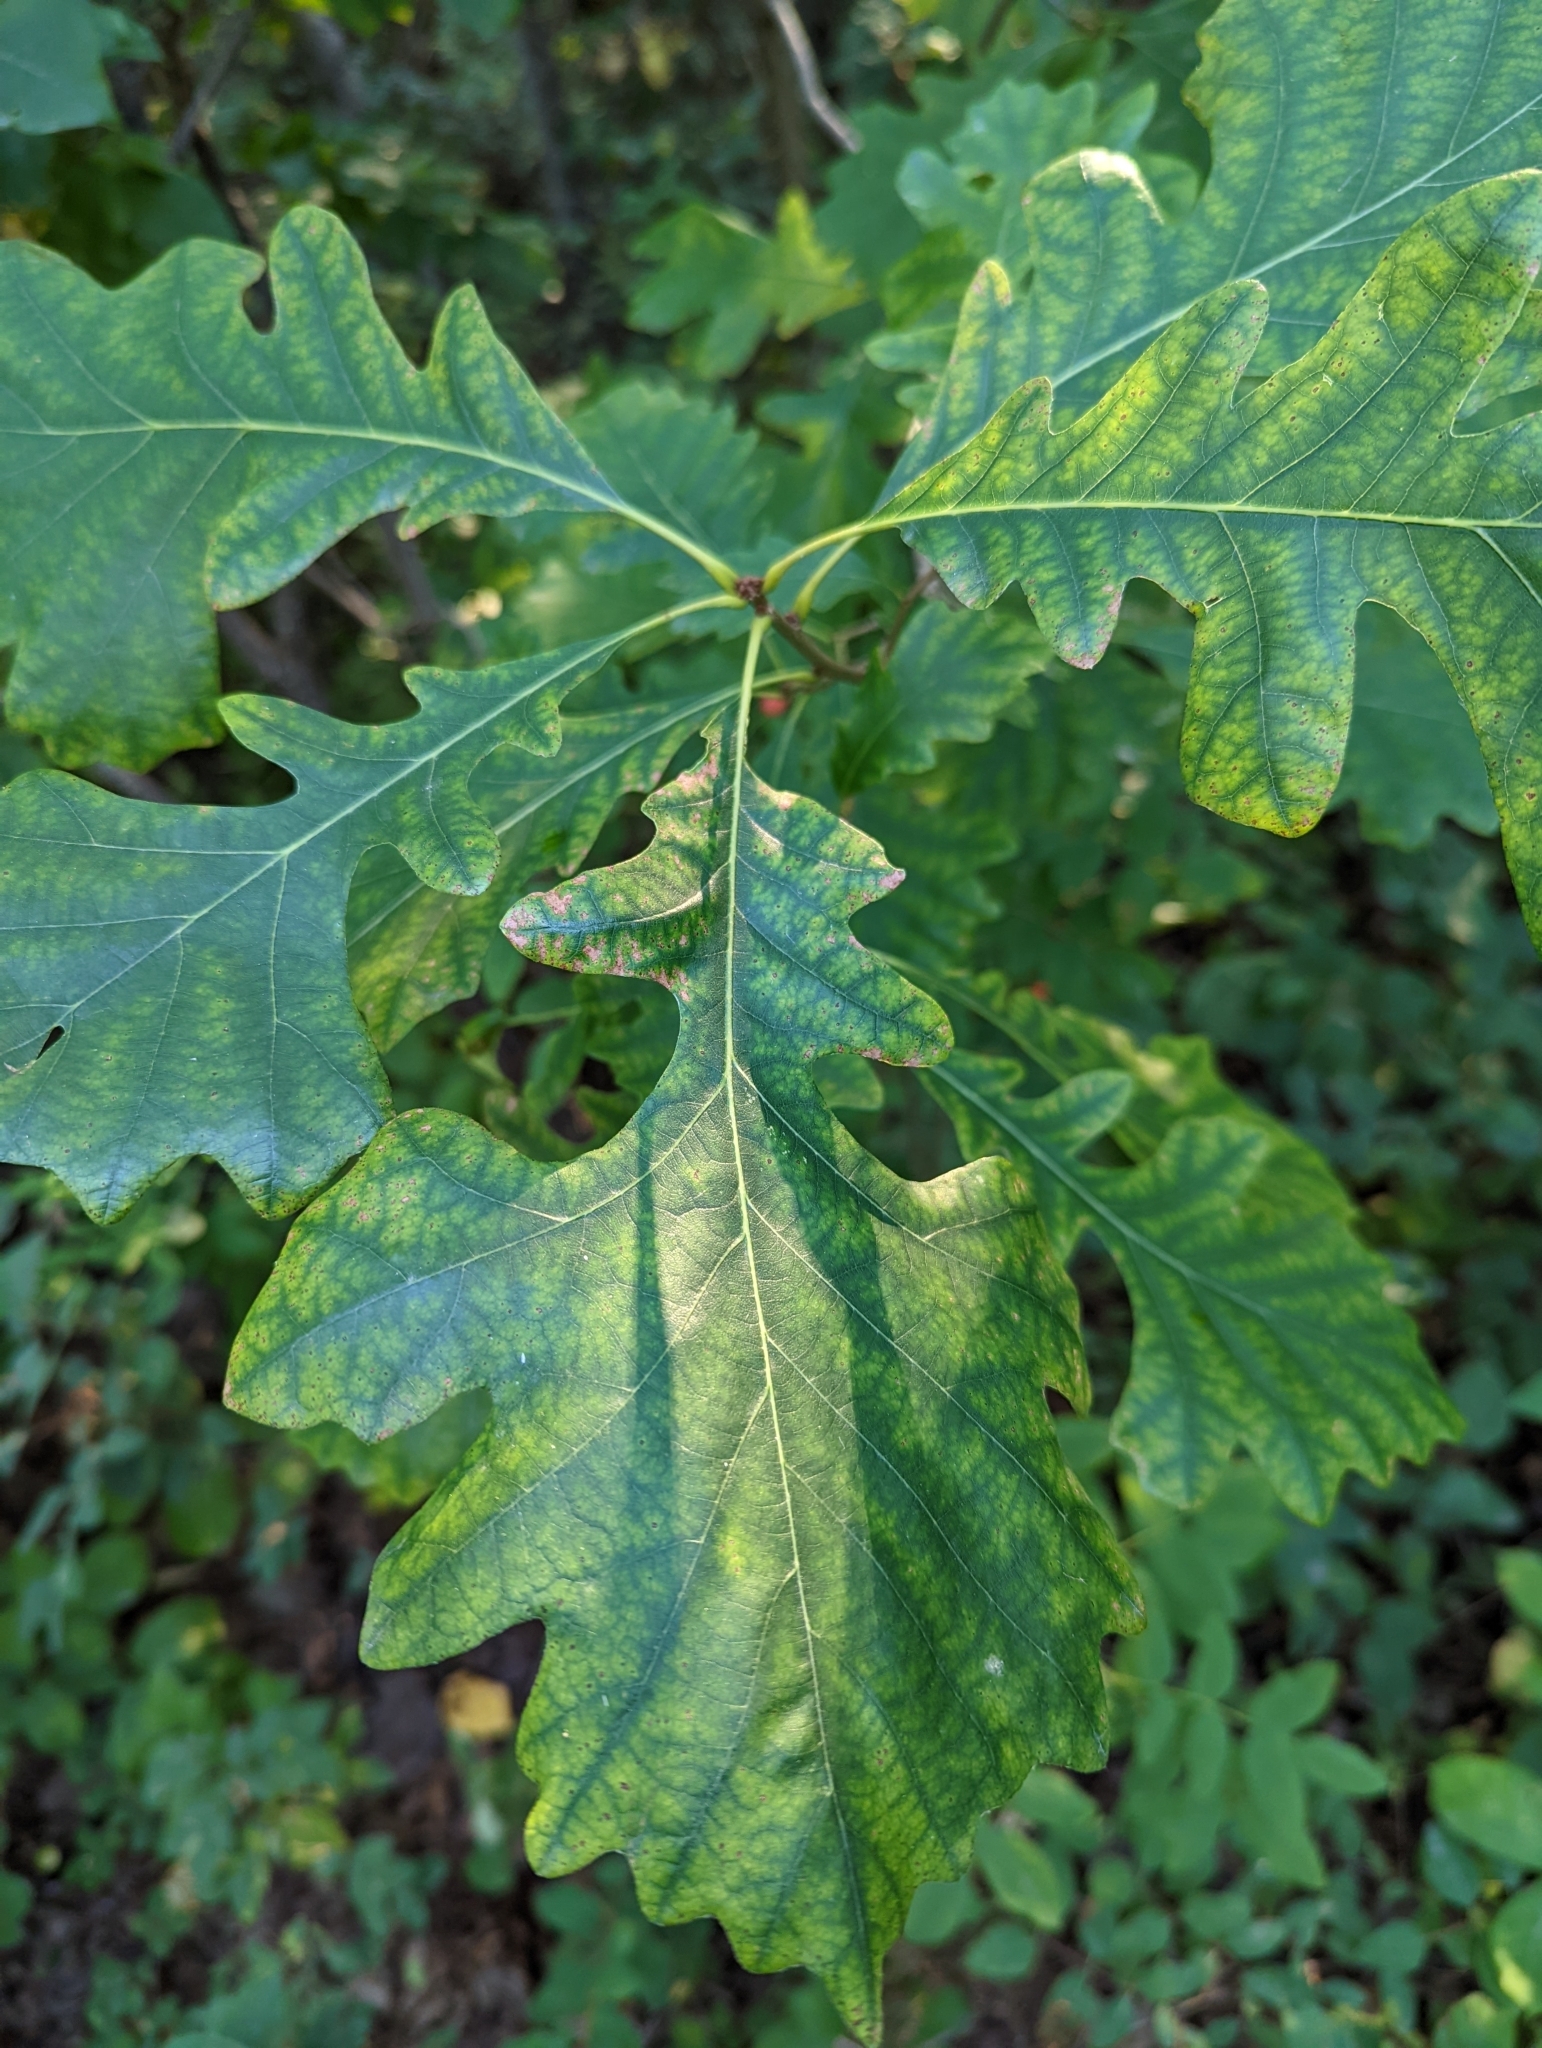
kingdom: Plantae
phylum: Tracheophyta
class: Magnoliopsida
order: Fagales
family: Fagaceae
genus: Quercus
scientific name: Quercus macrocarpa
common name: Bur oak
